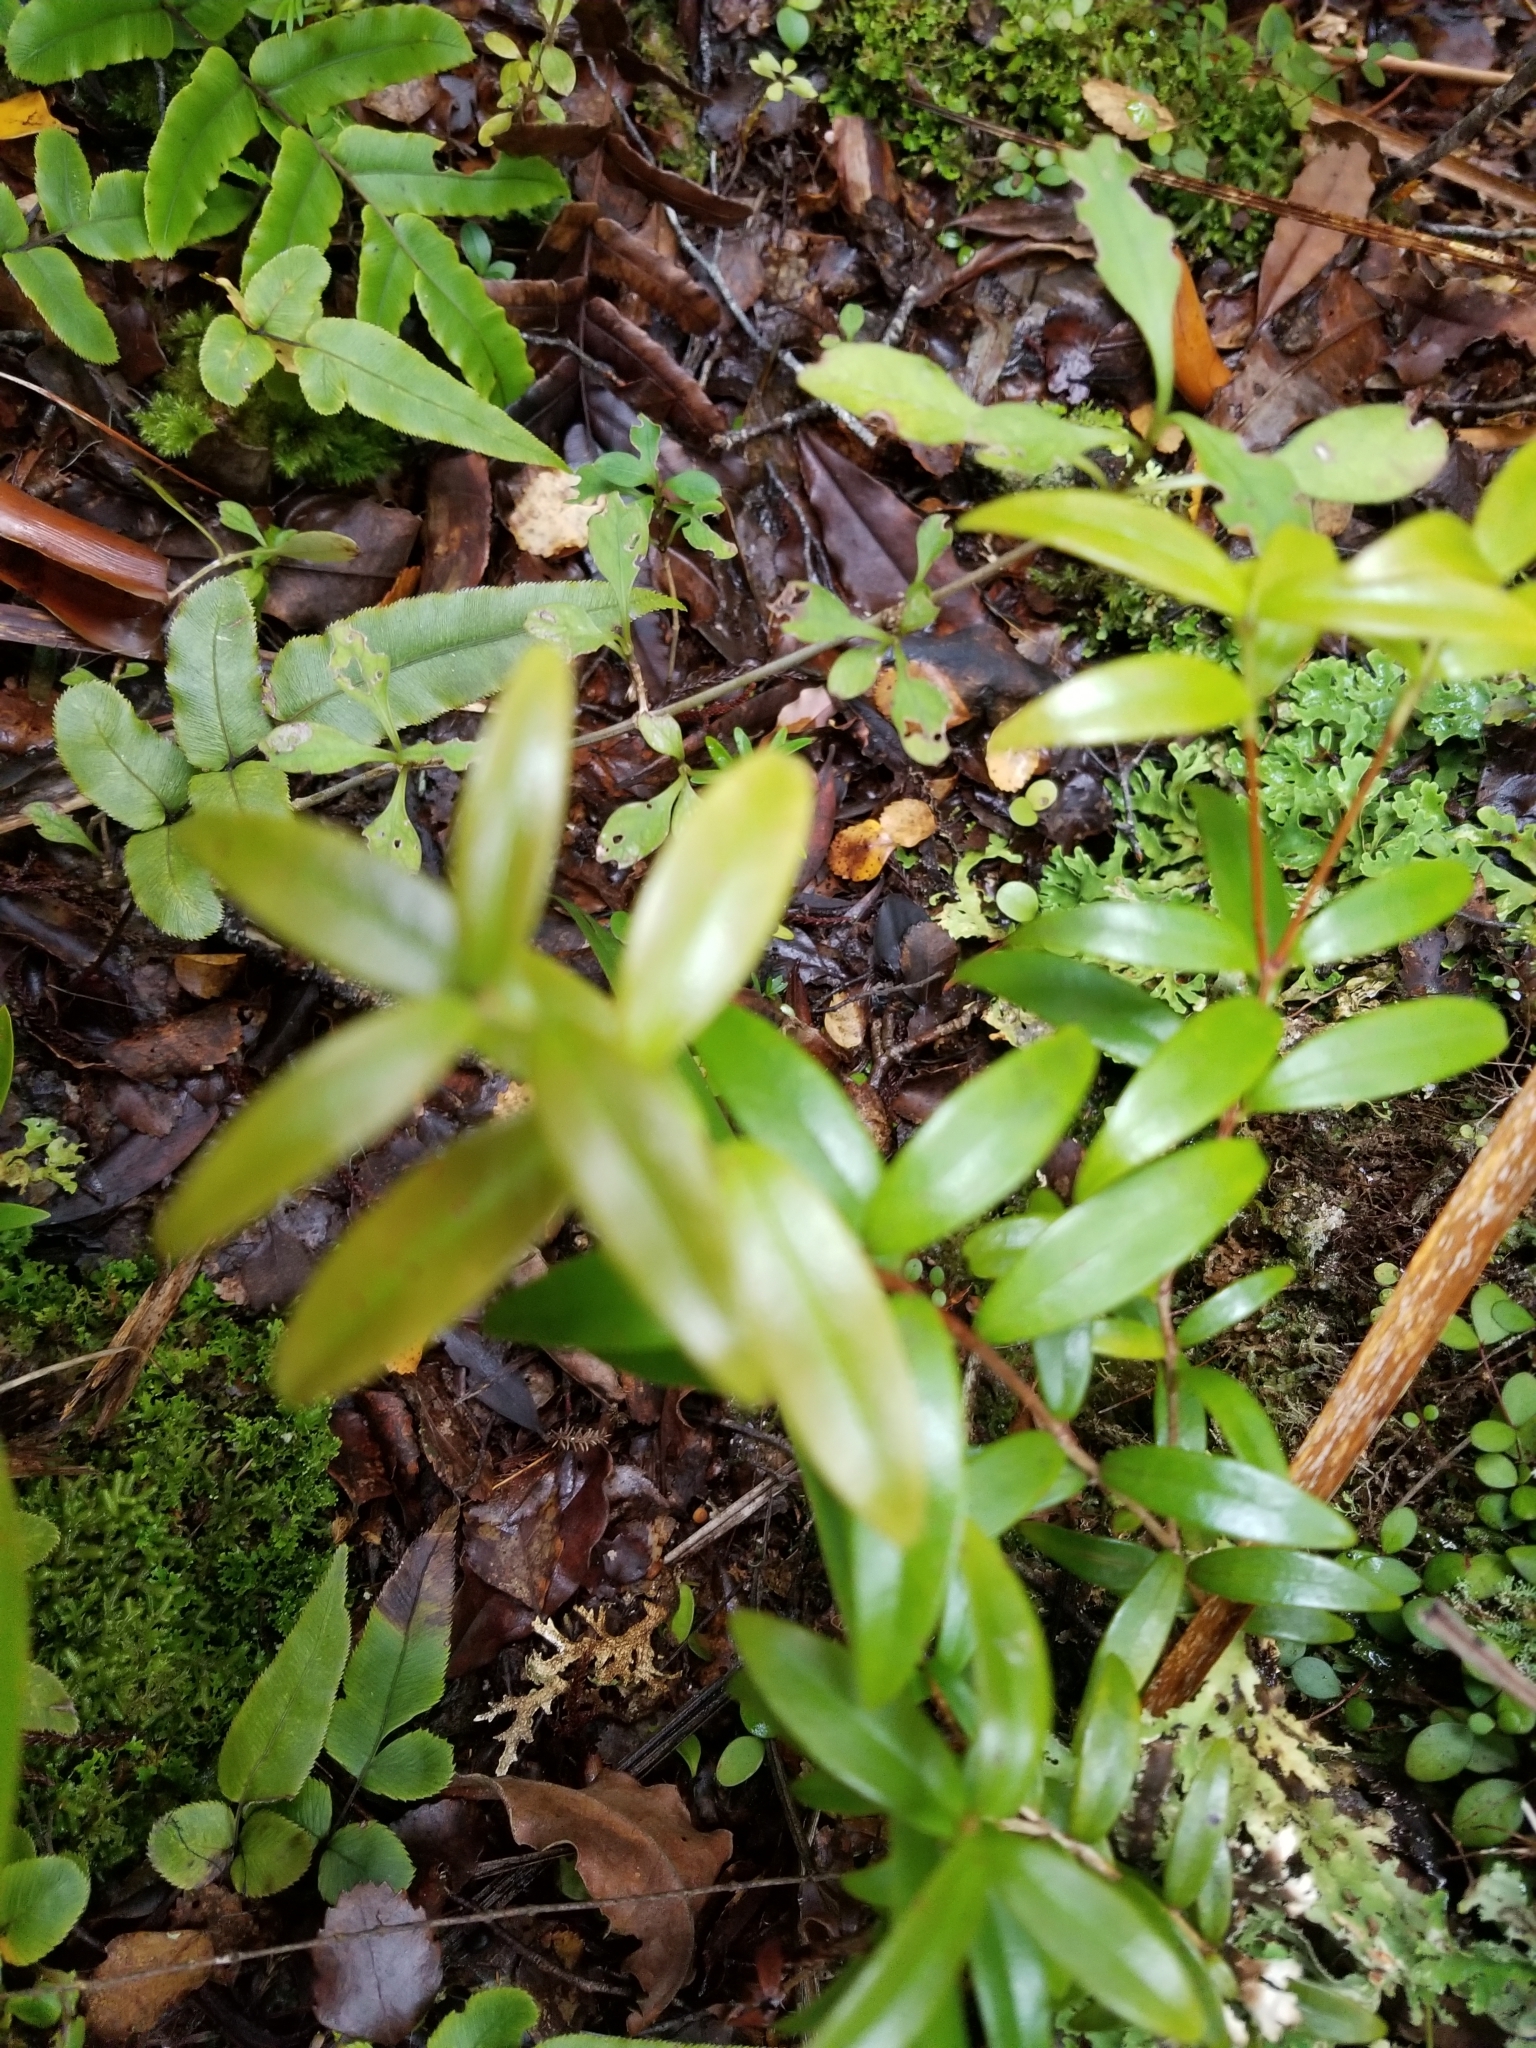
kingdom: Plantae
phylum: Tracheophyta
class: Magnoliopsida
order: Myrtales
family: Myrtaceae
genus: Metrosideros
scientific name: Metrosideros umbellata
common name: Southern rata
